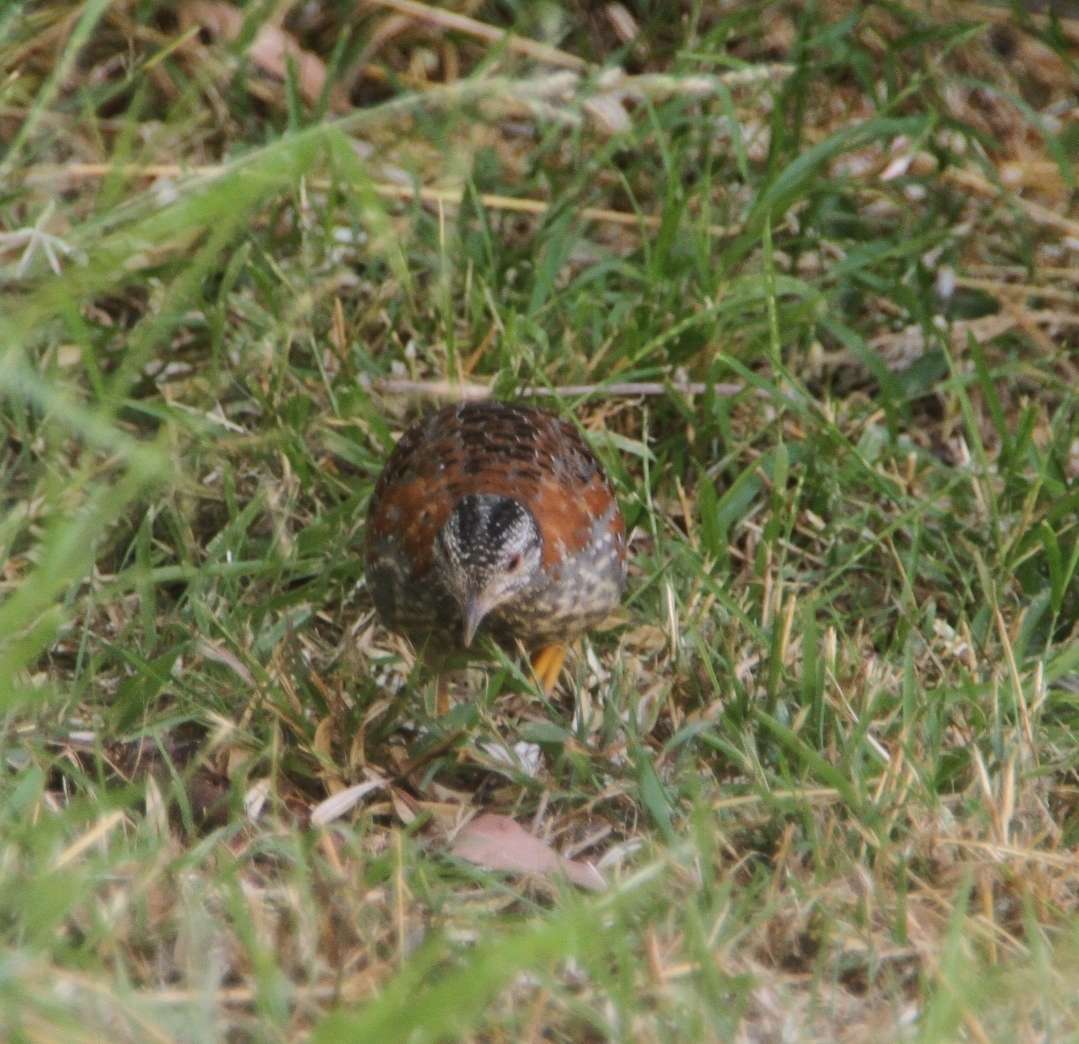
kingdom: Animalia
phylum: Chordata
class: Aves
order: Charadriiformes
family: Turnicidae
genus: Turnix
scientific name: Turnix varius
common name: Painted buttonquail
